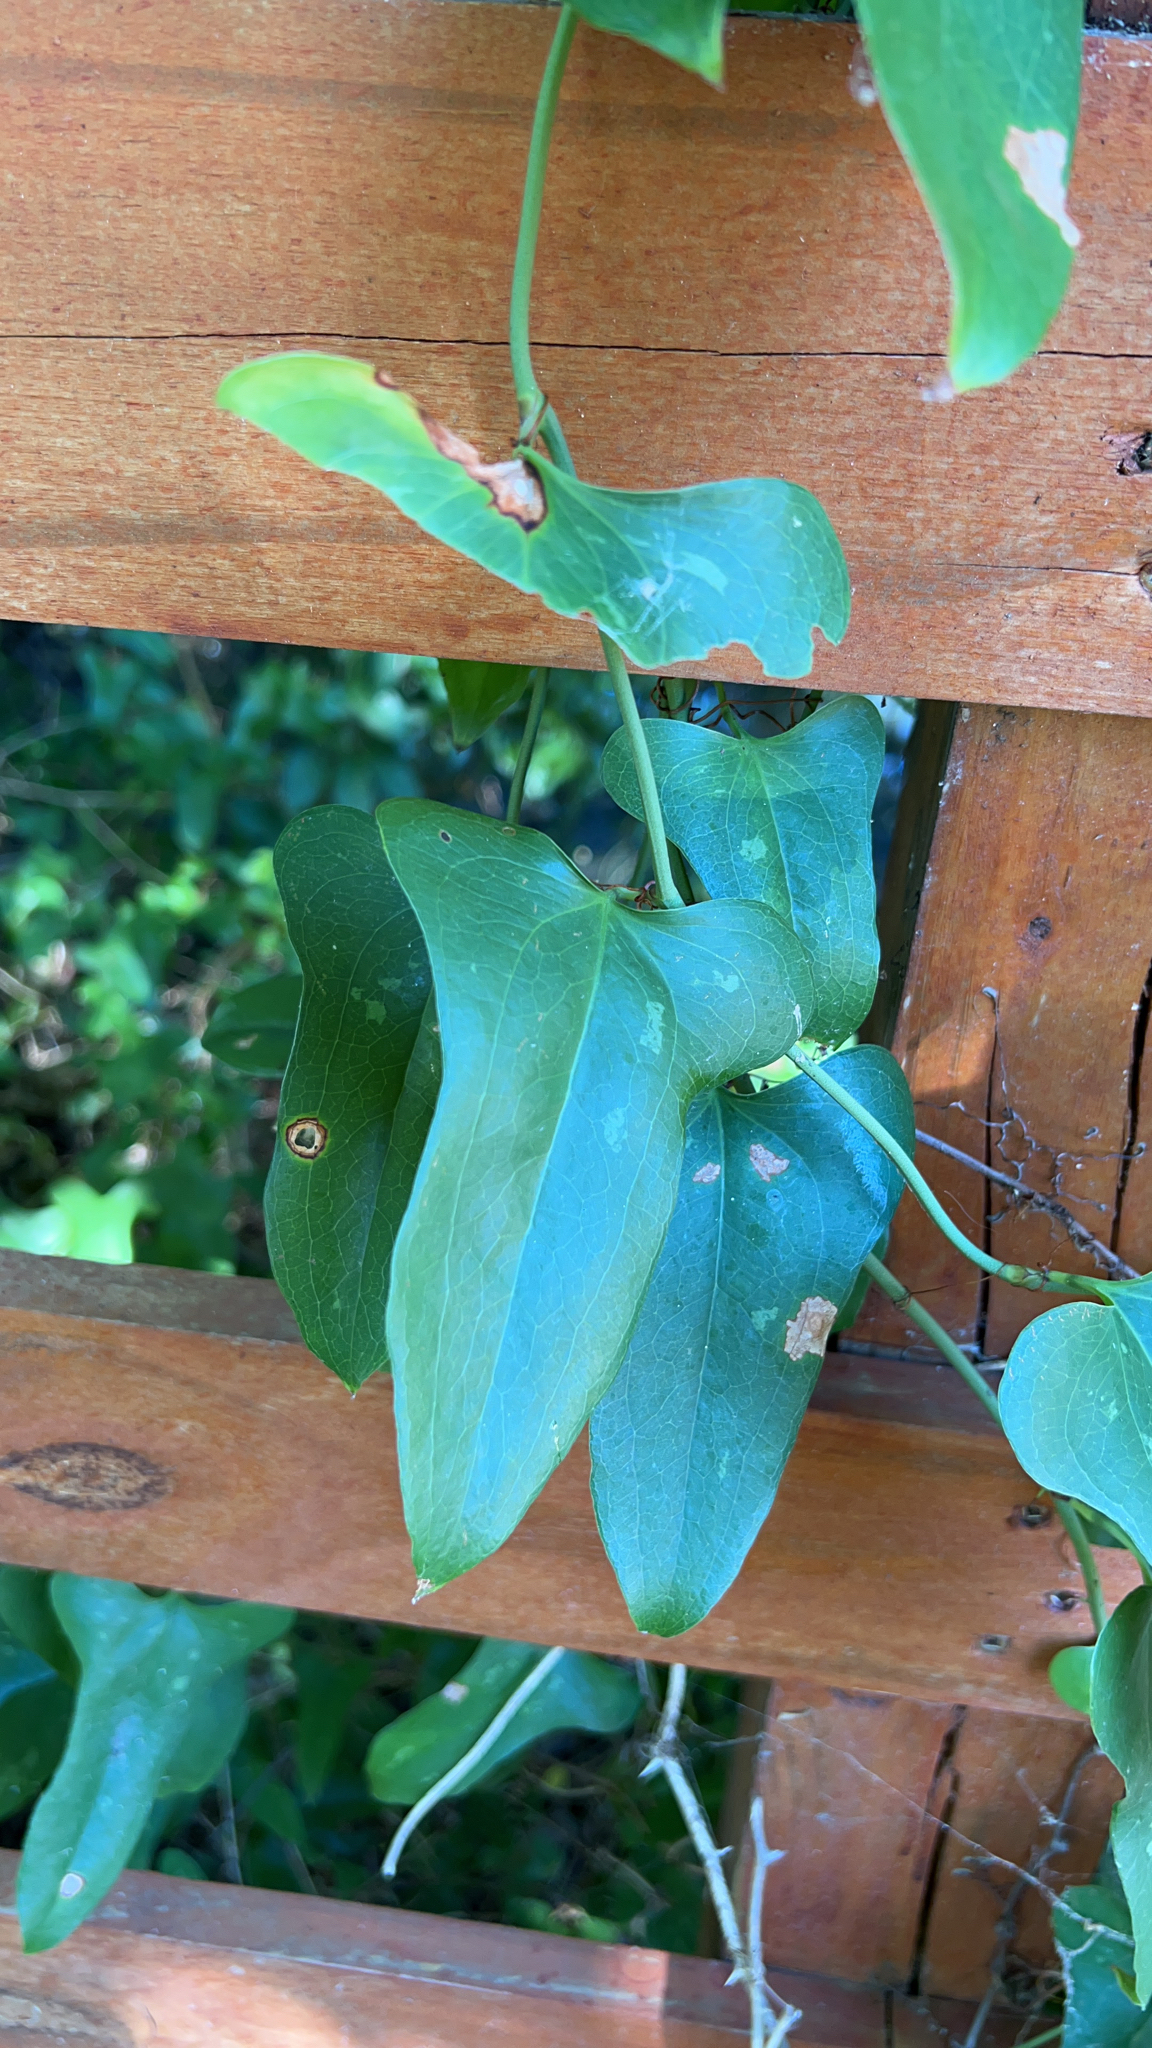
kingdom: Plantae
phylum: Tracheophyta
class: Liliopsida
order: Liliales
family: Smilacaceae
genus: Smilax
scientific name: Smilax bona-nox
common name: Catbrier
